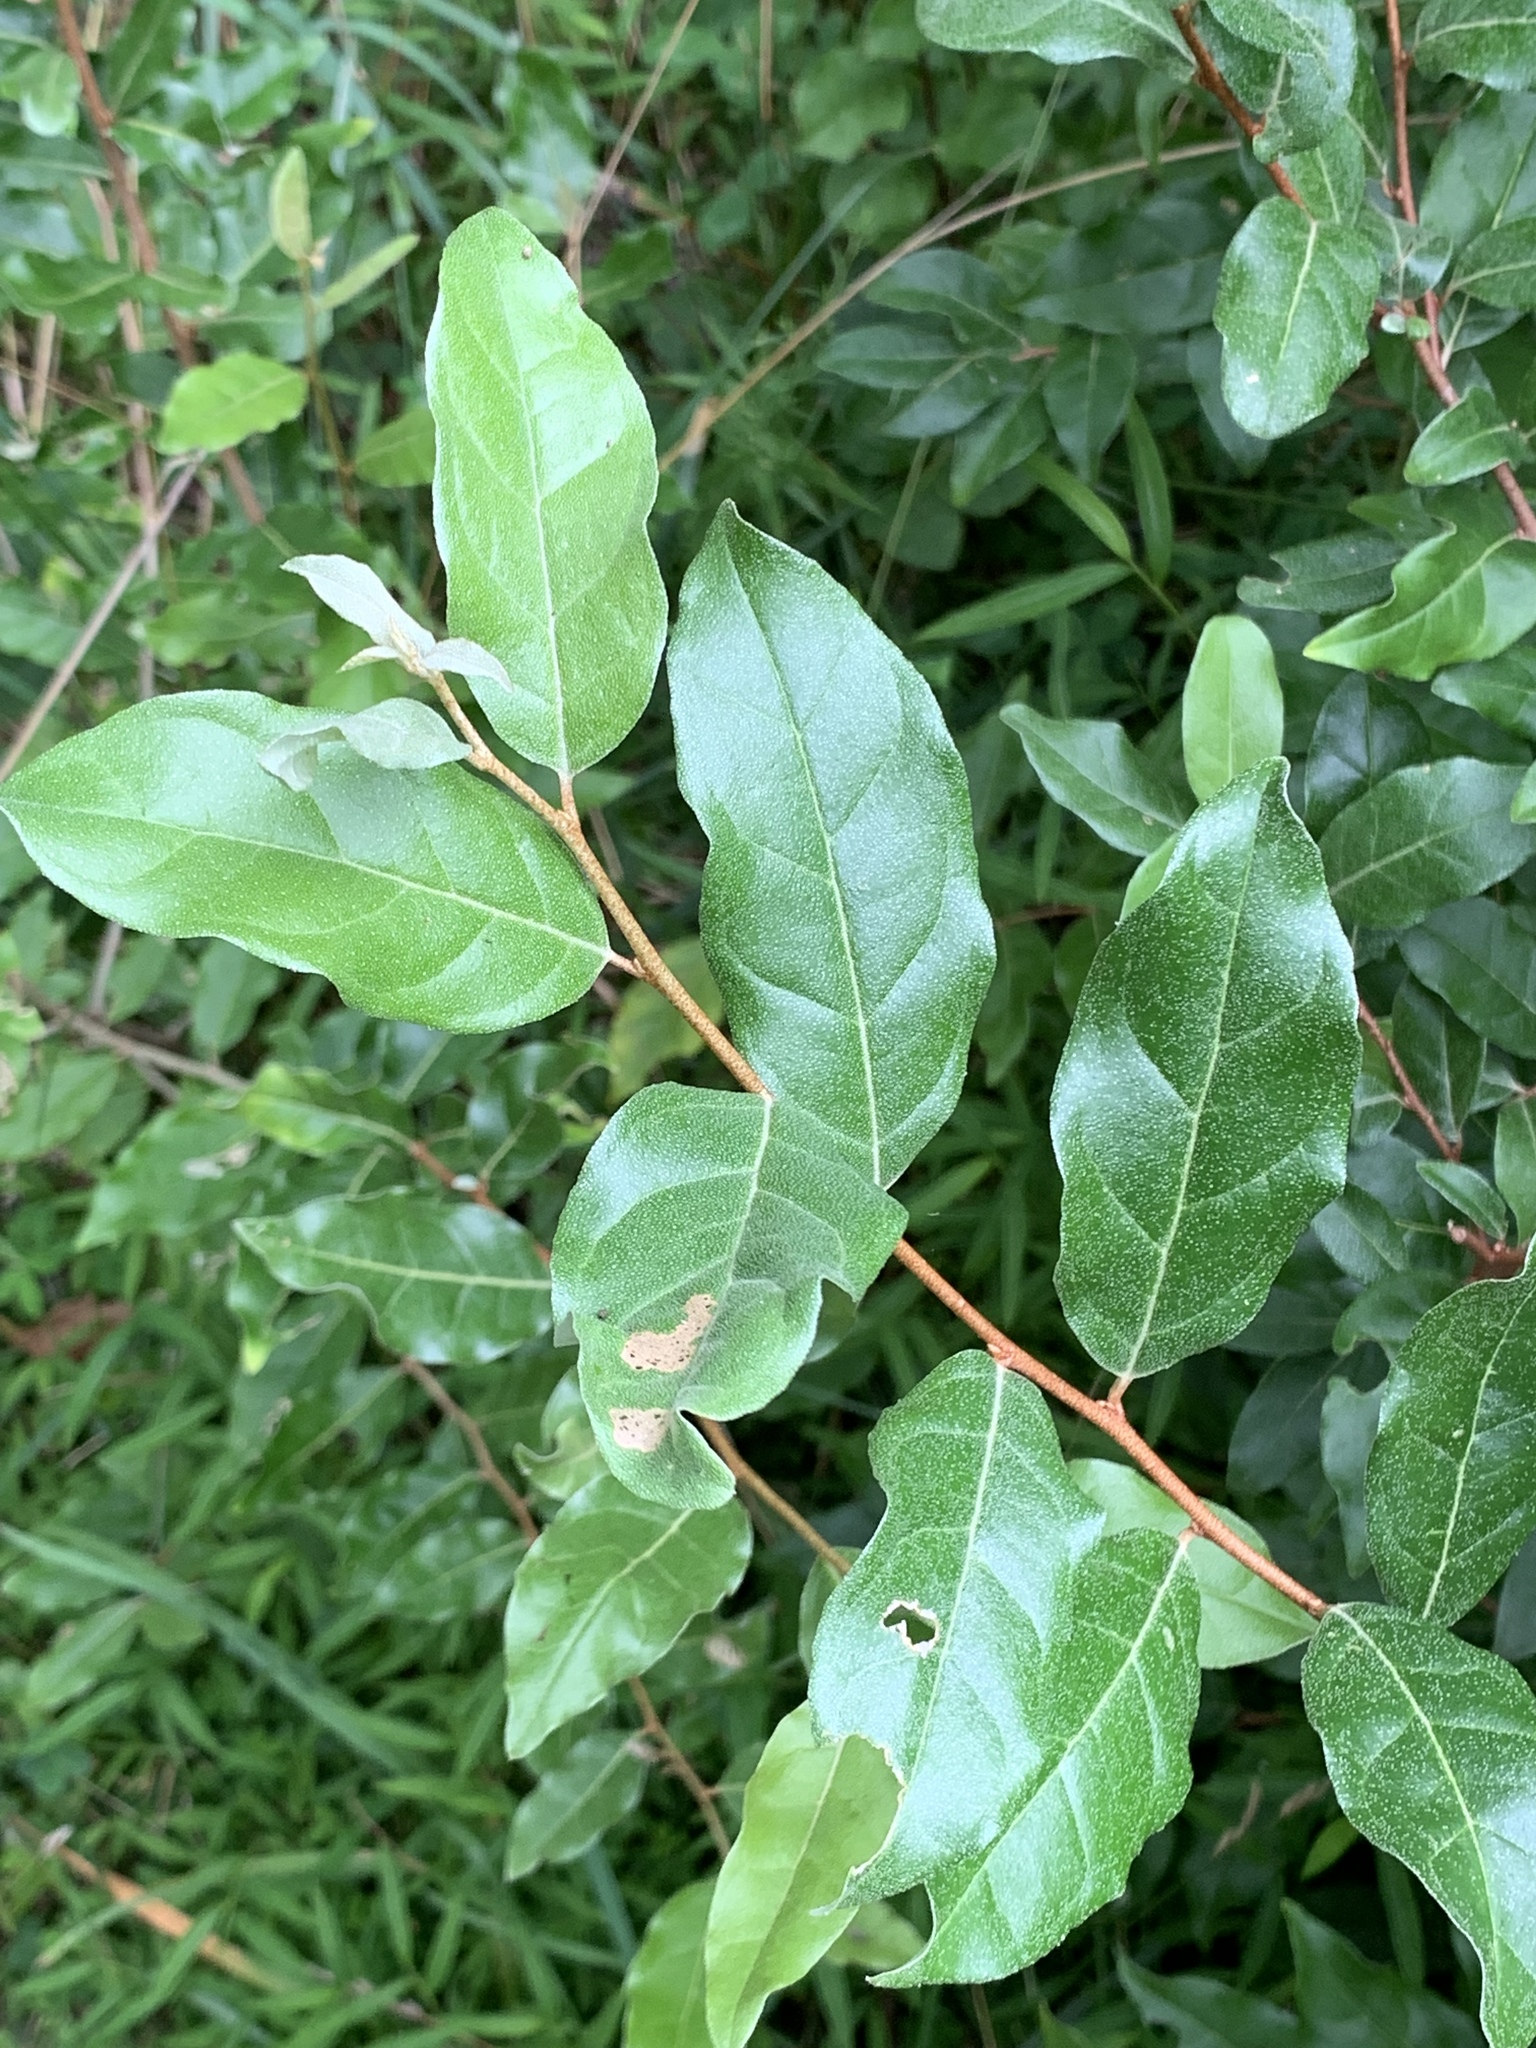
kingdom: Plantae
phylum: Tracheophyta
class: Magnoliopsida
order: Rosales
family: Elaeagnaceae
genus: Elaeagnus
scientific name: Elaeagnus umbellata
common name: Autumn olive
